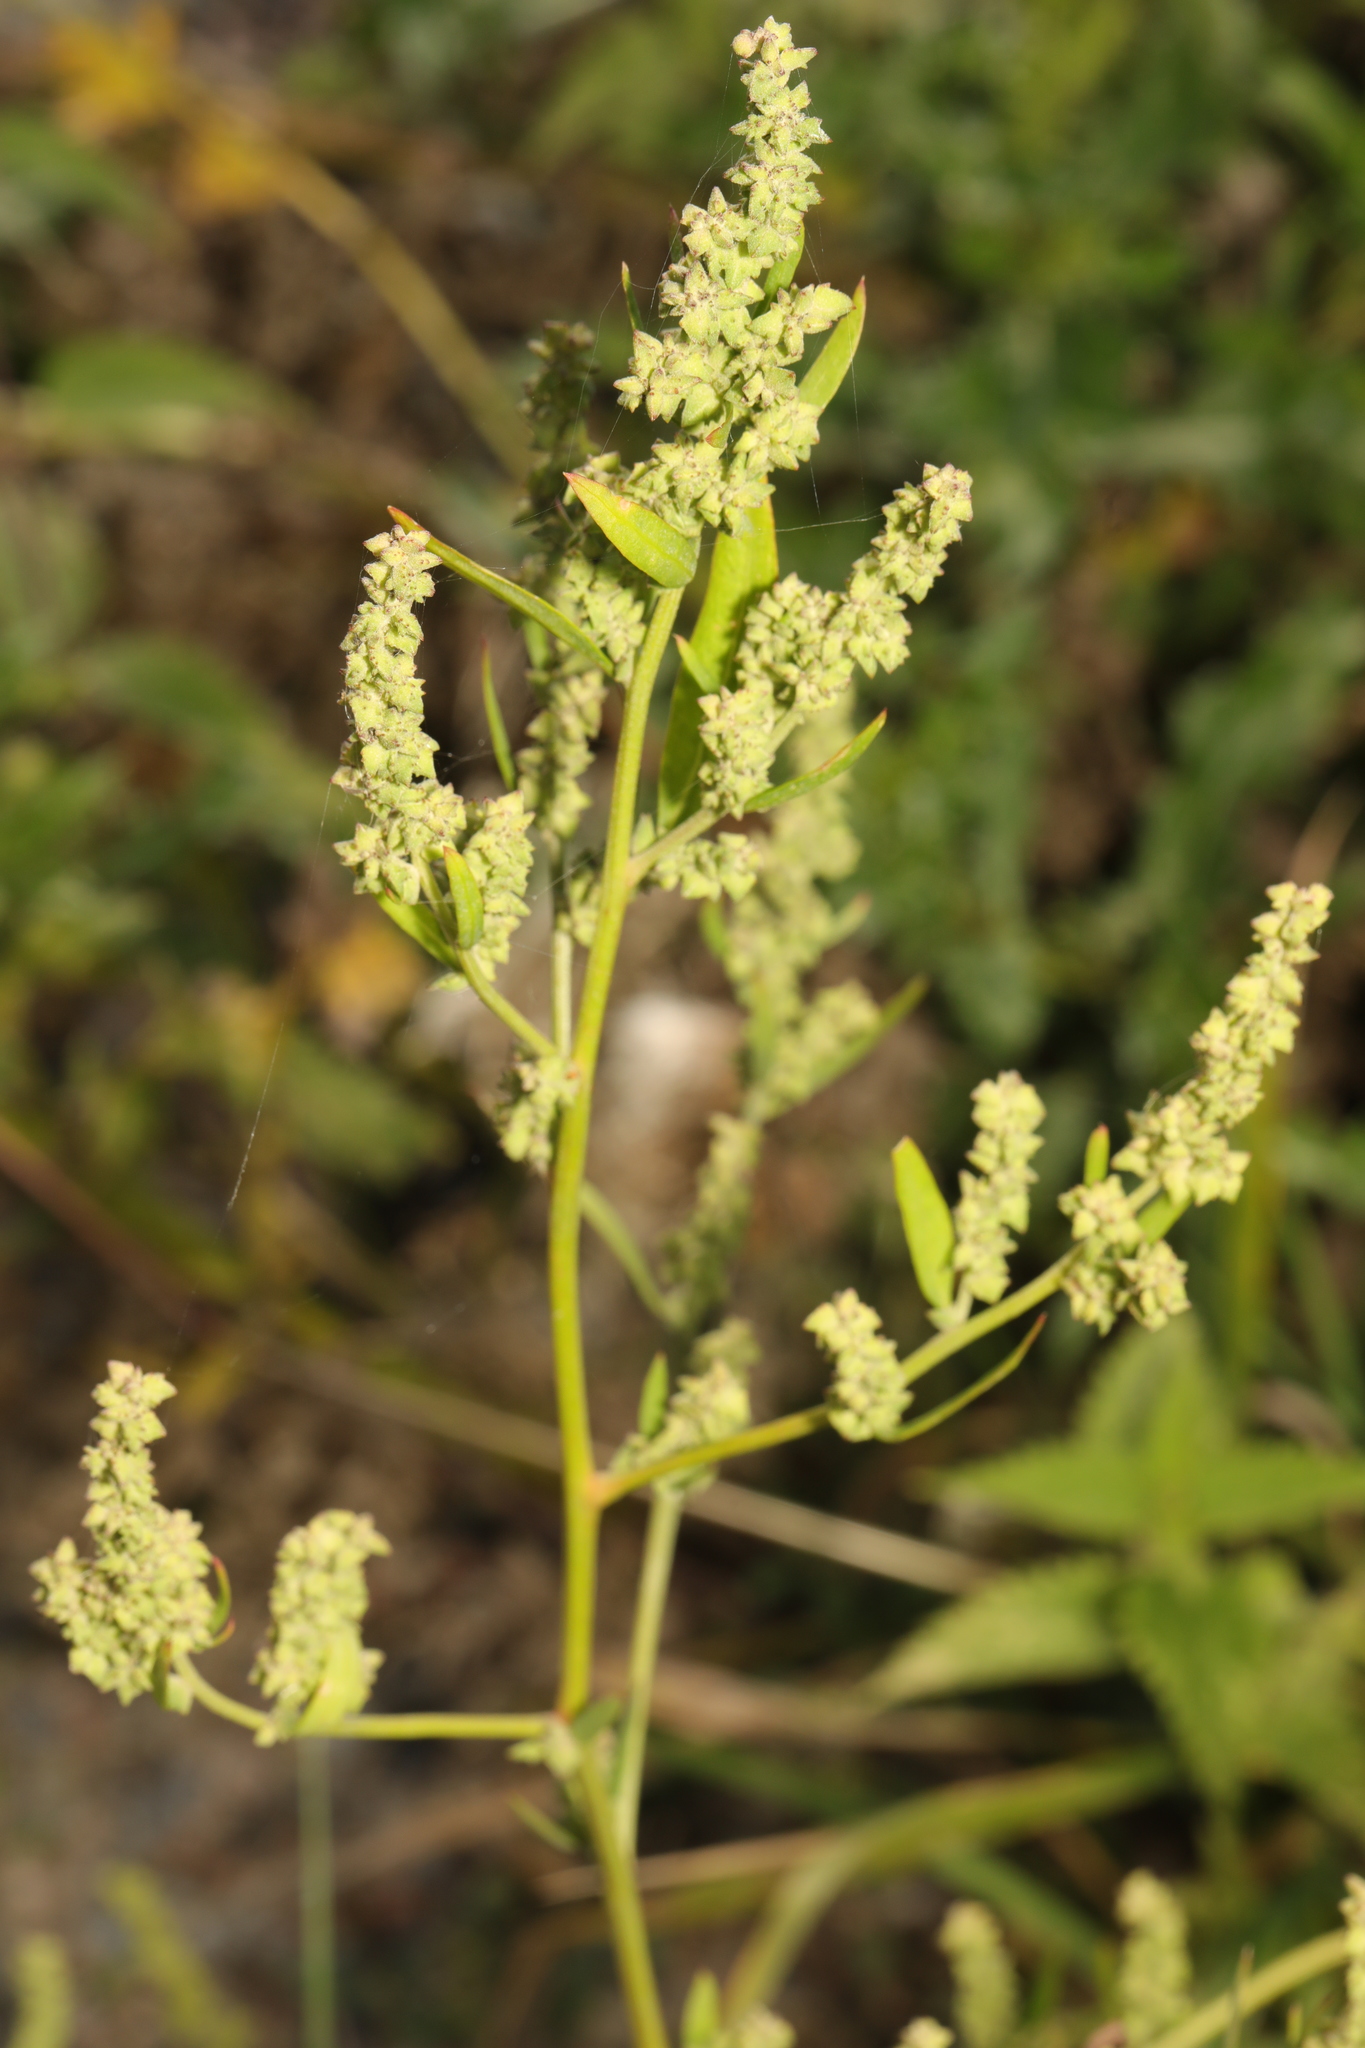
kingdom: Plantae
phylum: Tracheophyta
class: Magnoliopsida
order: Caryophyllales
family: Amaranthaceae
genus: Atriplex
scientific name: Atriplex patula
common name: Common orache
